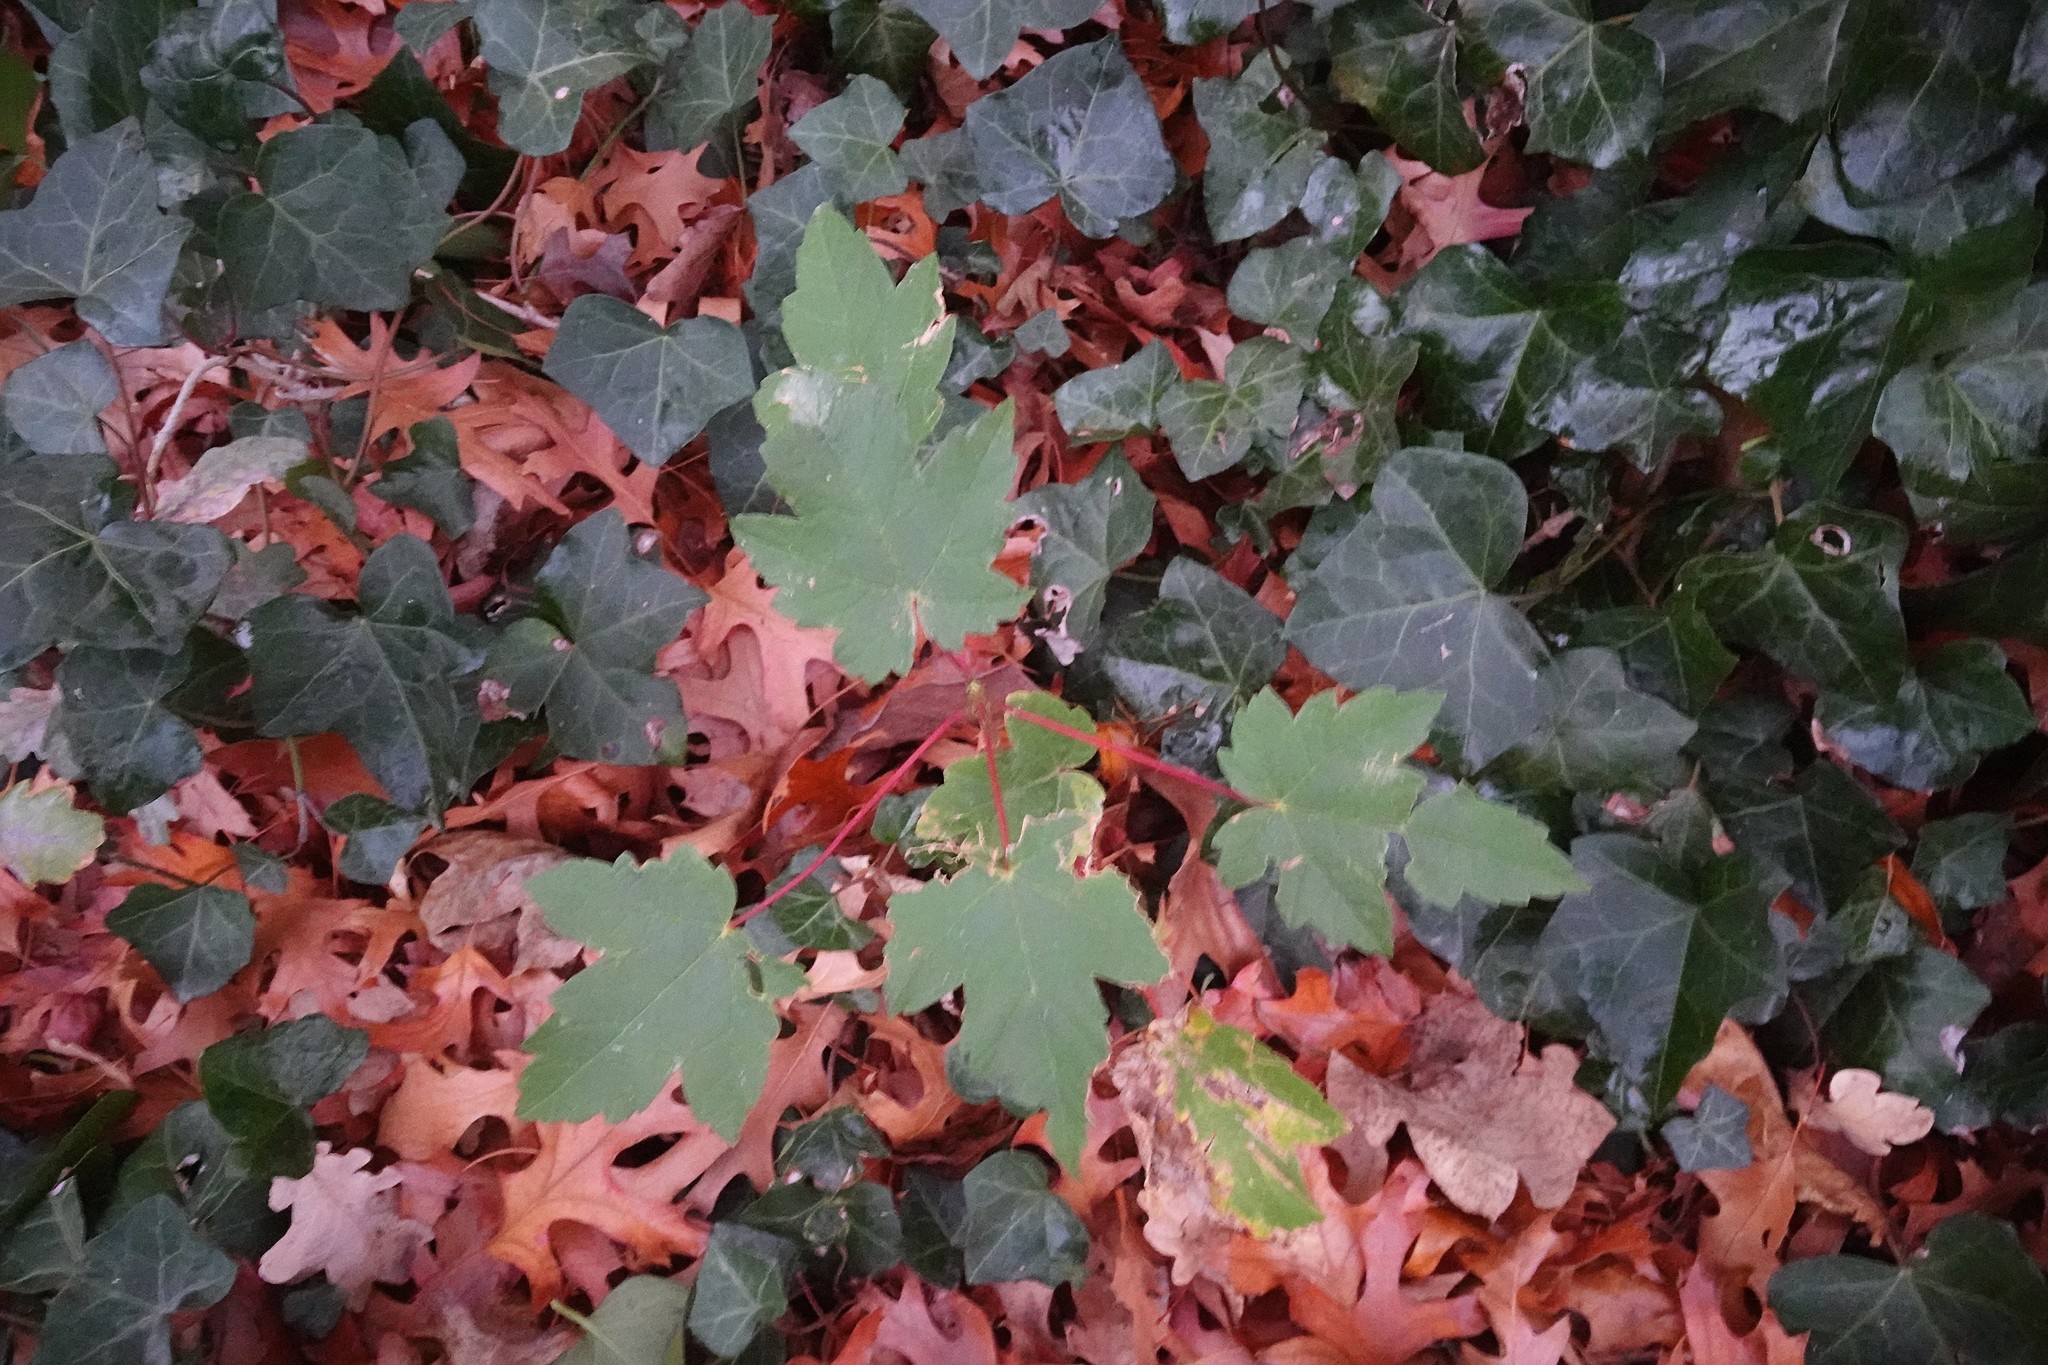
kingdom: Plantae
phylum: Tracheophyta
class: Magnoliopsida
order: Sapindales
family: Sapindaceae
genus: Acer
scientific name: Acer pseudoplatanus
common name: Sycamore
